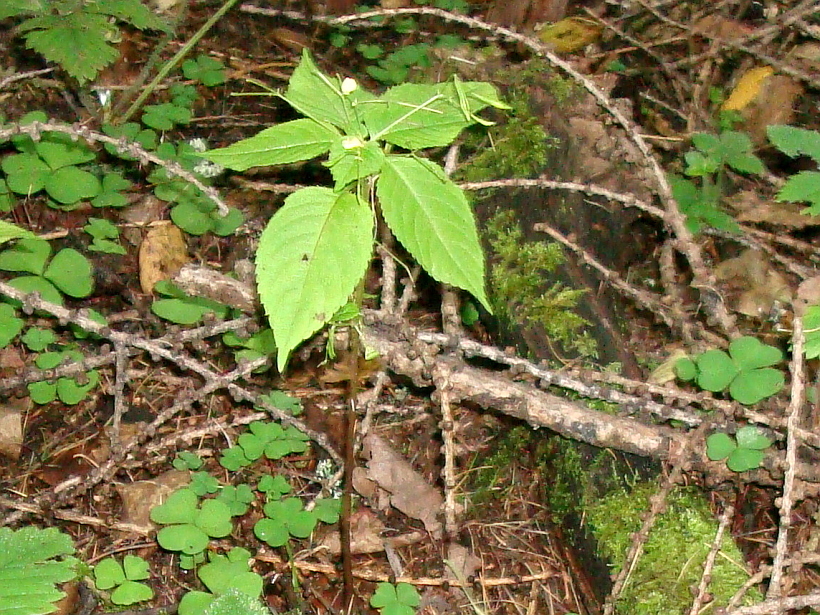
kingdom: Plantae
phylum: Tracheophyta
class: Magnoliopsida
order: Ericales
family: Balsaminaceae
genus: Impatiens
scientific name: Impatiens parviflora
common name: Small balsam
